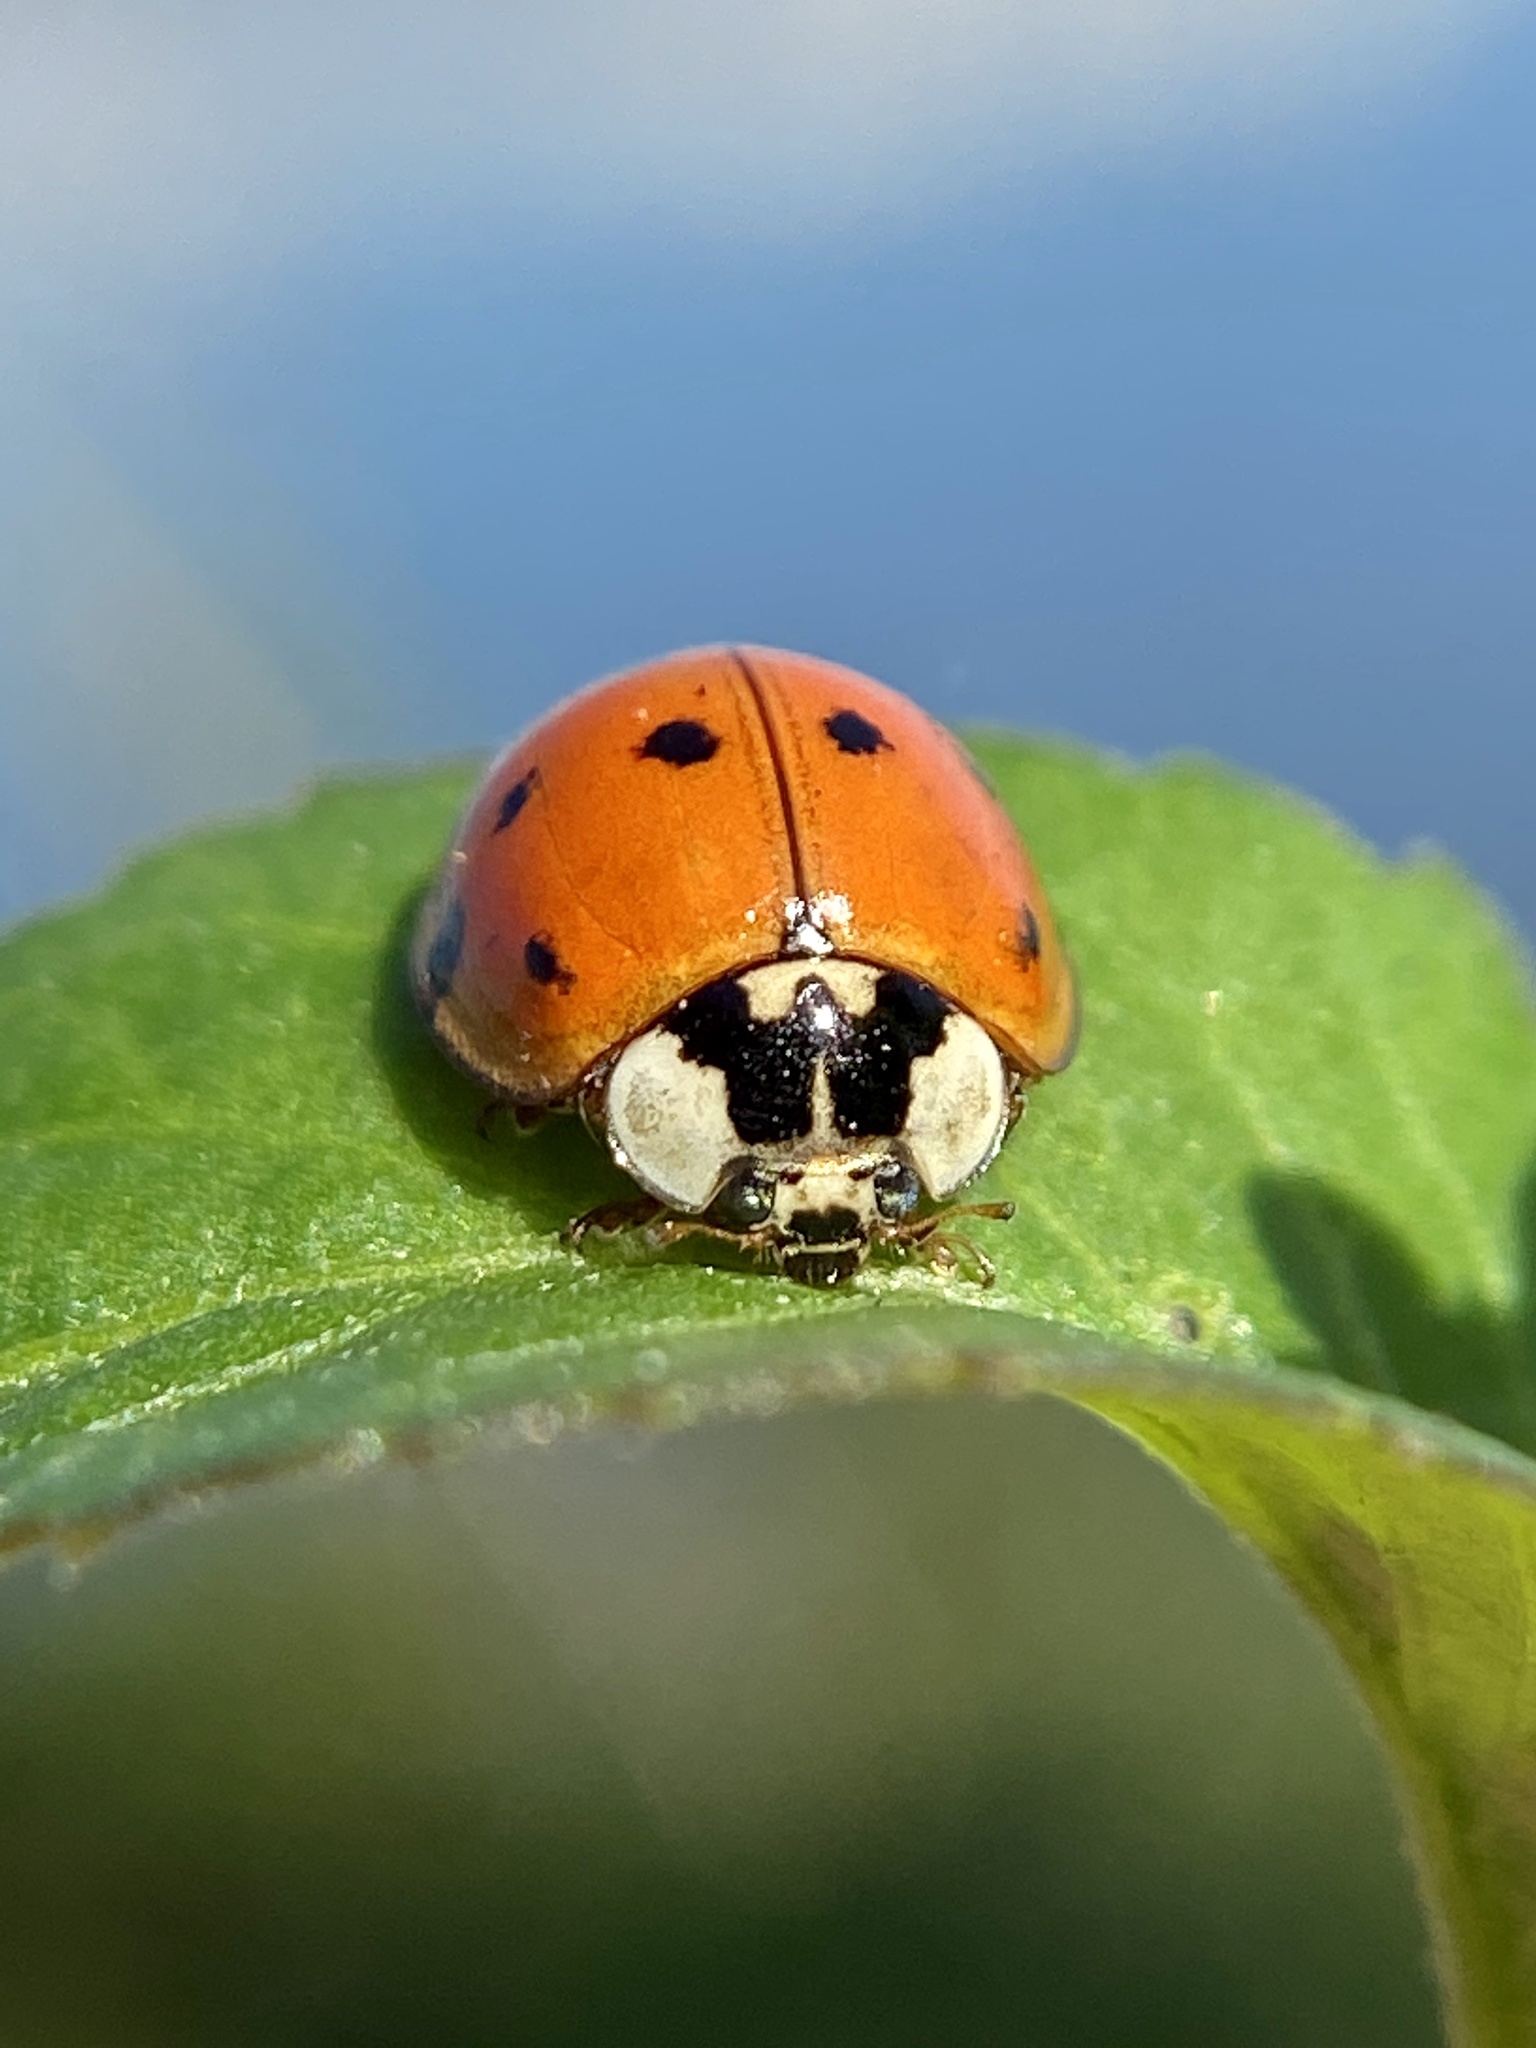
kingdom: Animalia
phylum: Arthropoda
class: Insecta
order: Coleoptera
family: Coccinellidae
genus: Harmonia
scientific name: Harmonia axyridis
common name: Harlequin ladybird
